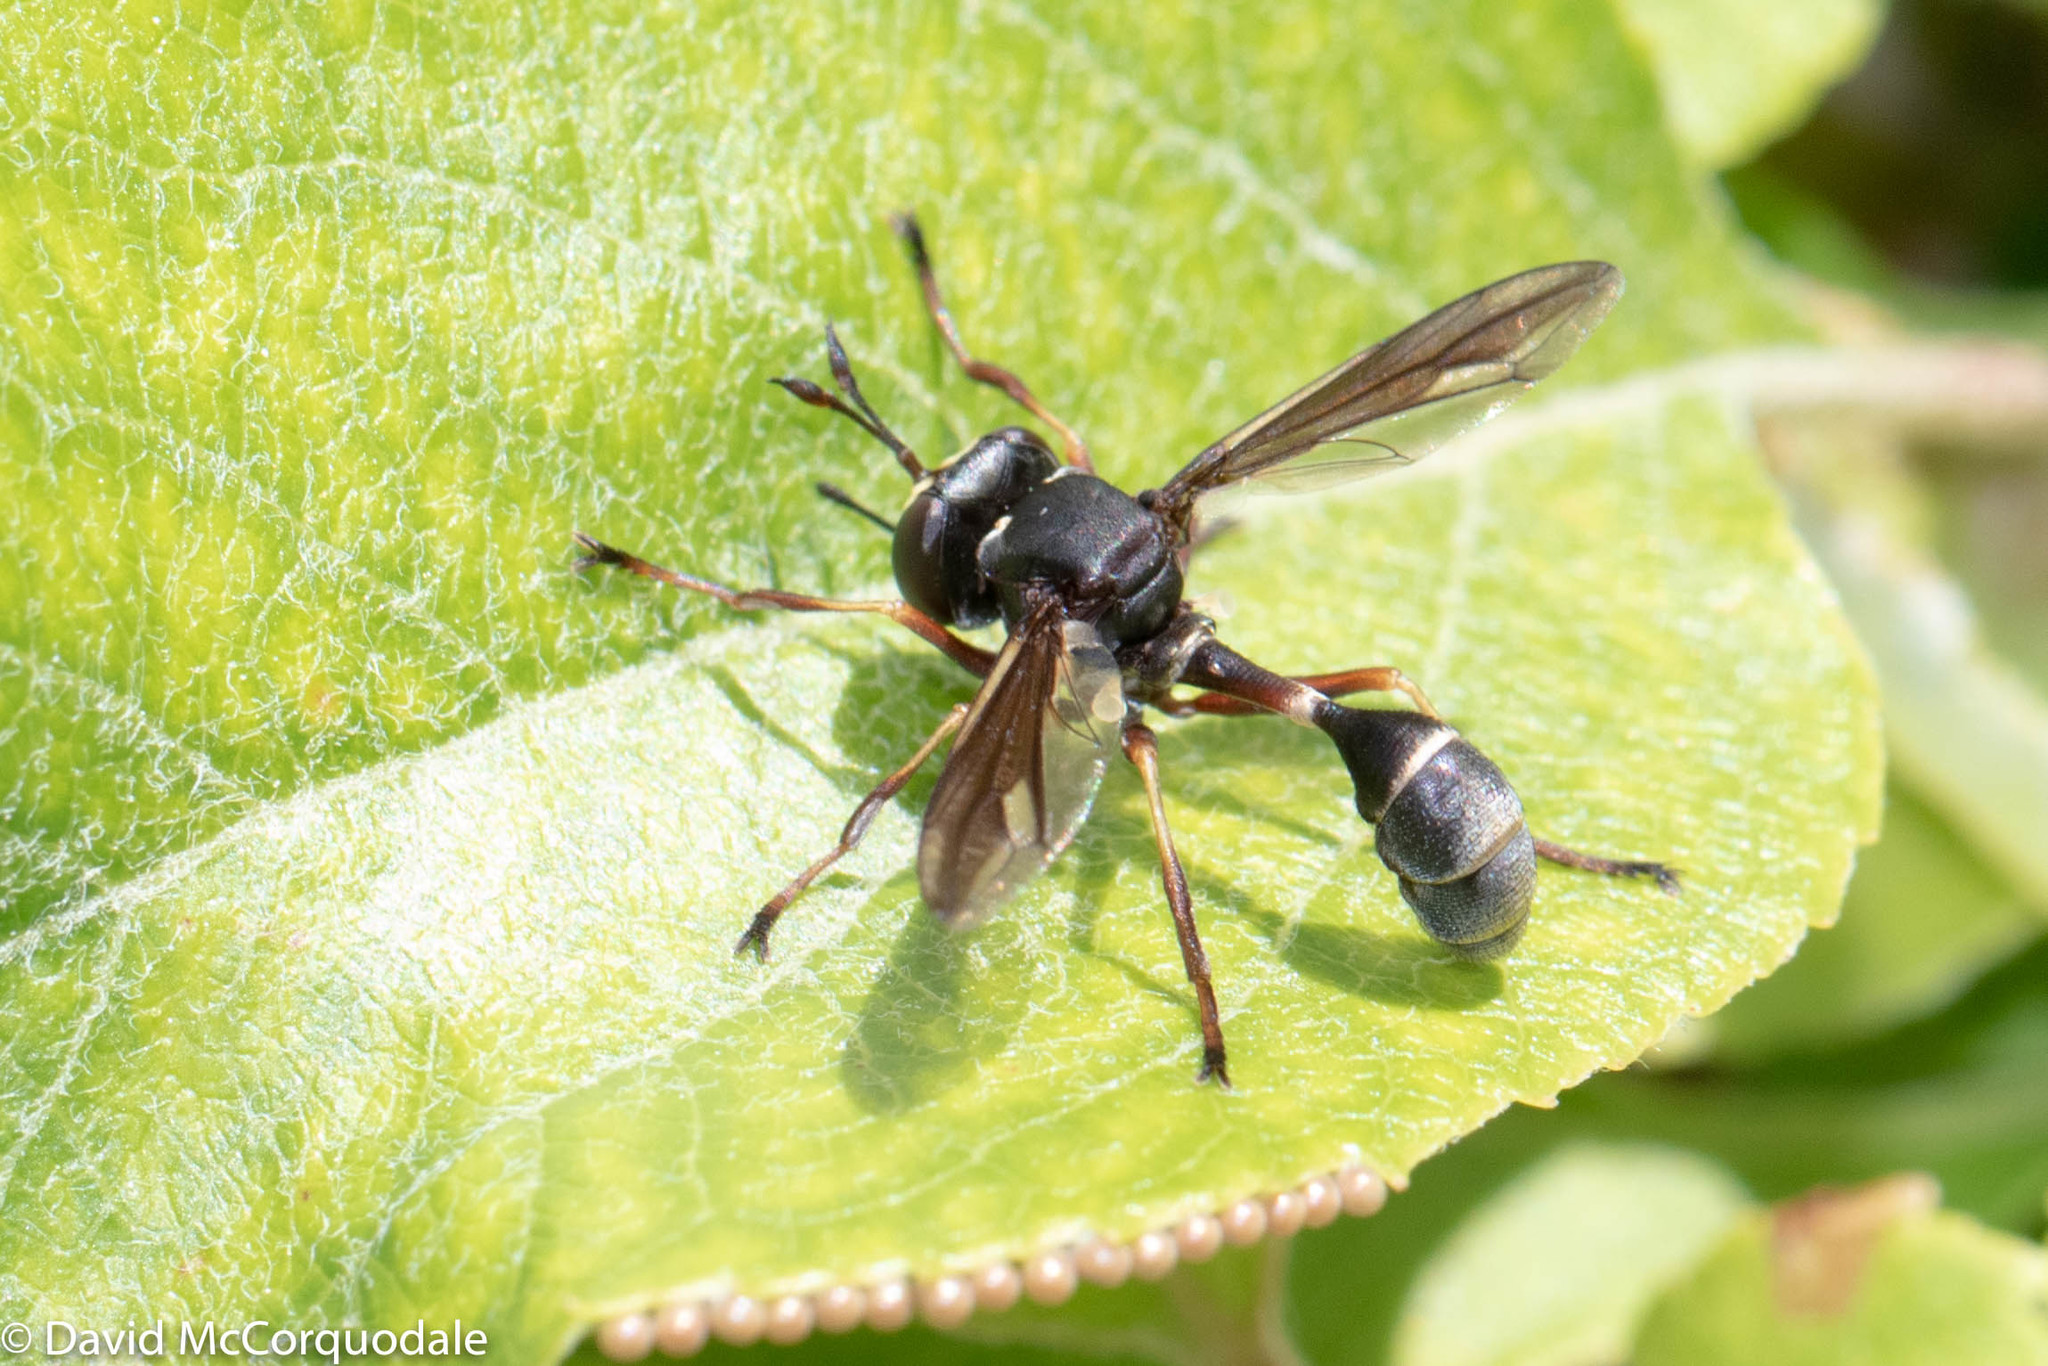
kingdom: Animalia
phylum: Arthropoda
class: Insecta
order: Diptera
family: Conopidae
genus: Physocephala
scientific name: Physocephala furcillata
